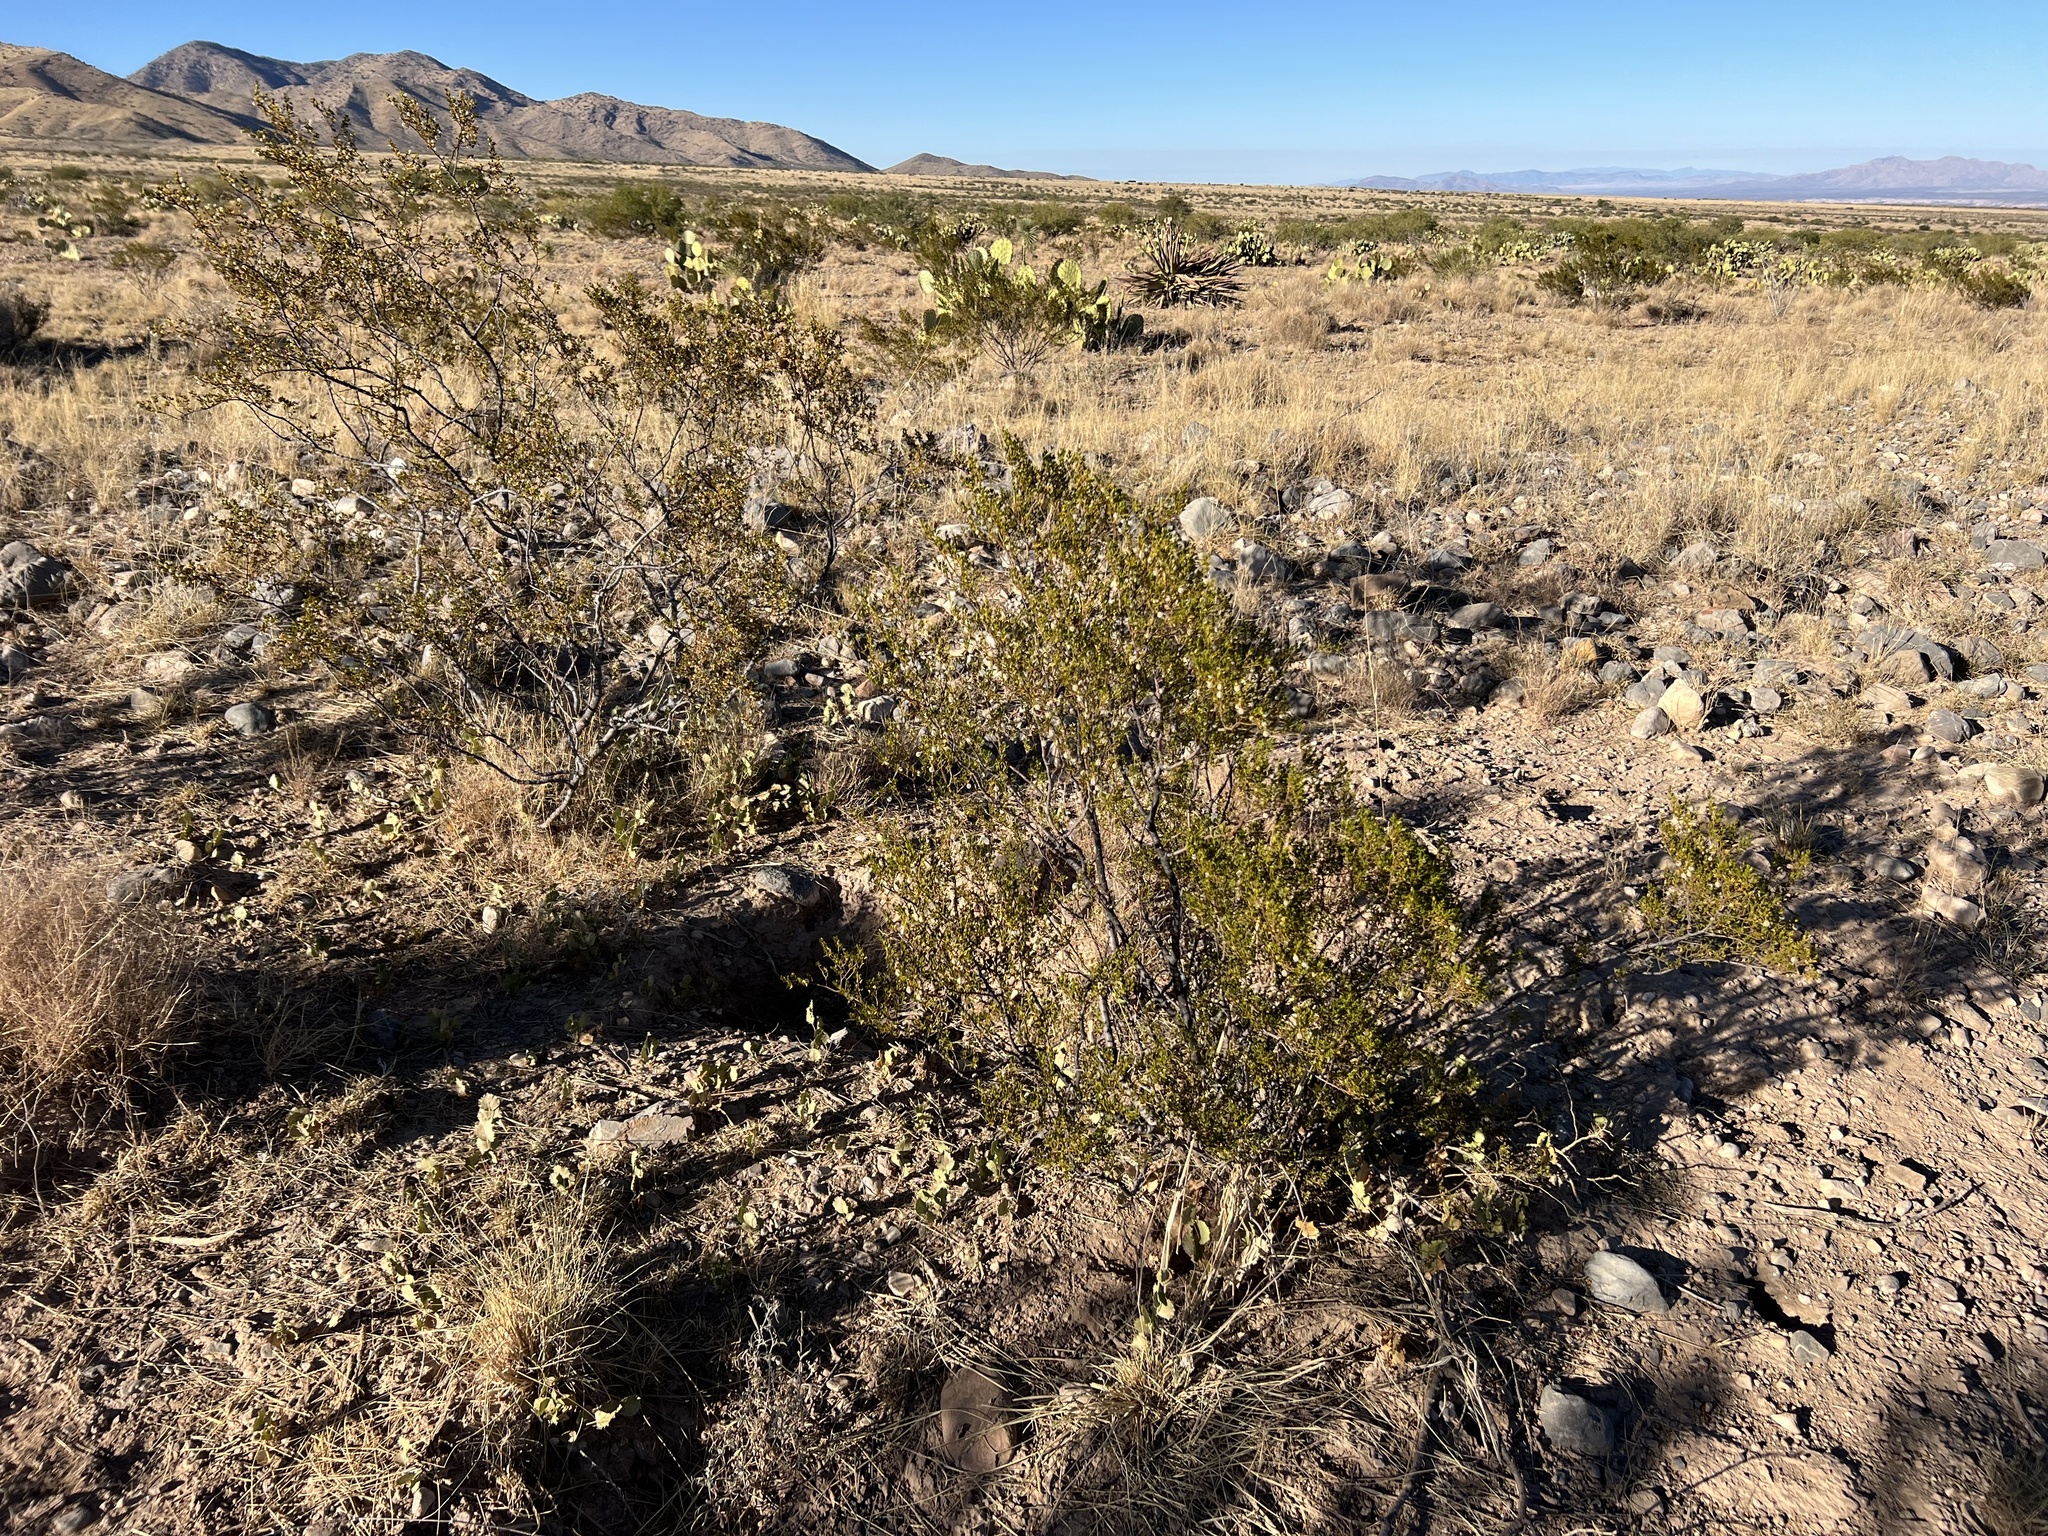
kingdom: Plantae
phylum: Tracheophyta
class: Magnoliopsida
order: Zygophyllales
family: Zygophyllaceae
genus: Larrea
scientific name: Larrea tridentata
